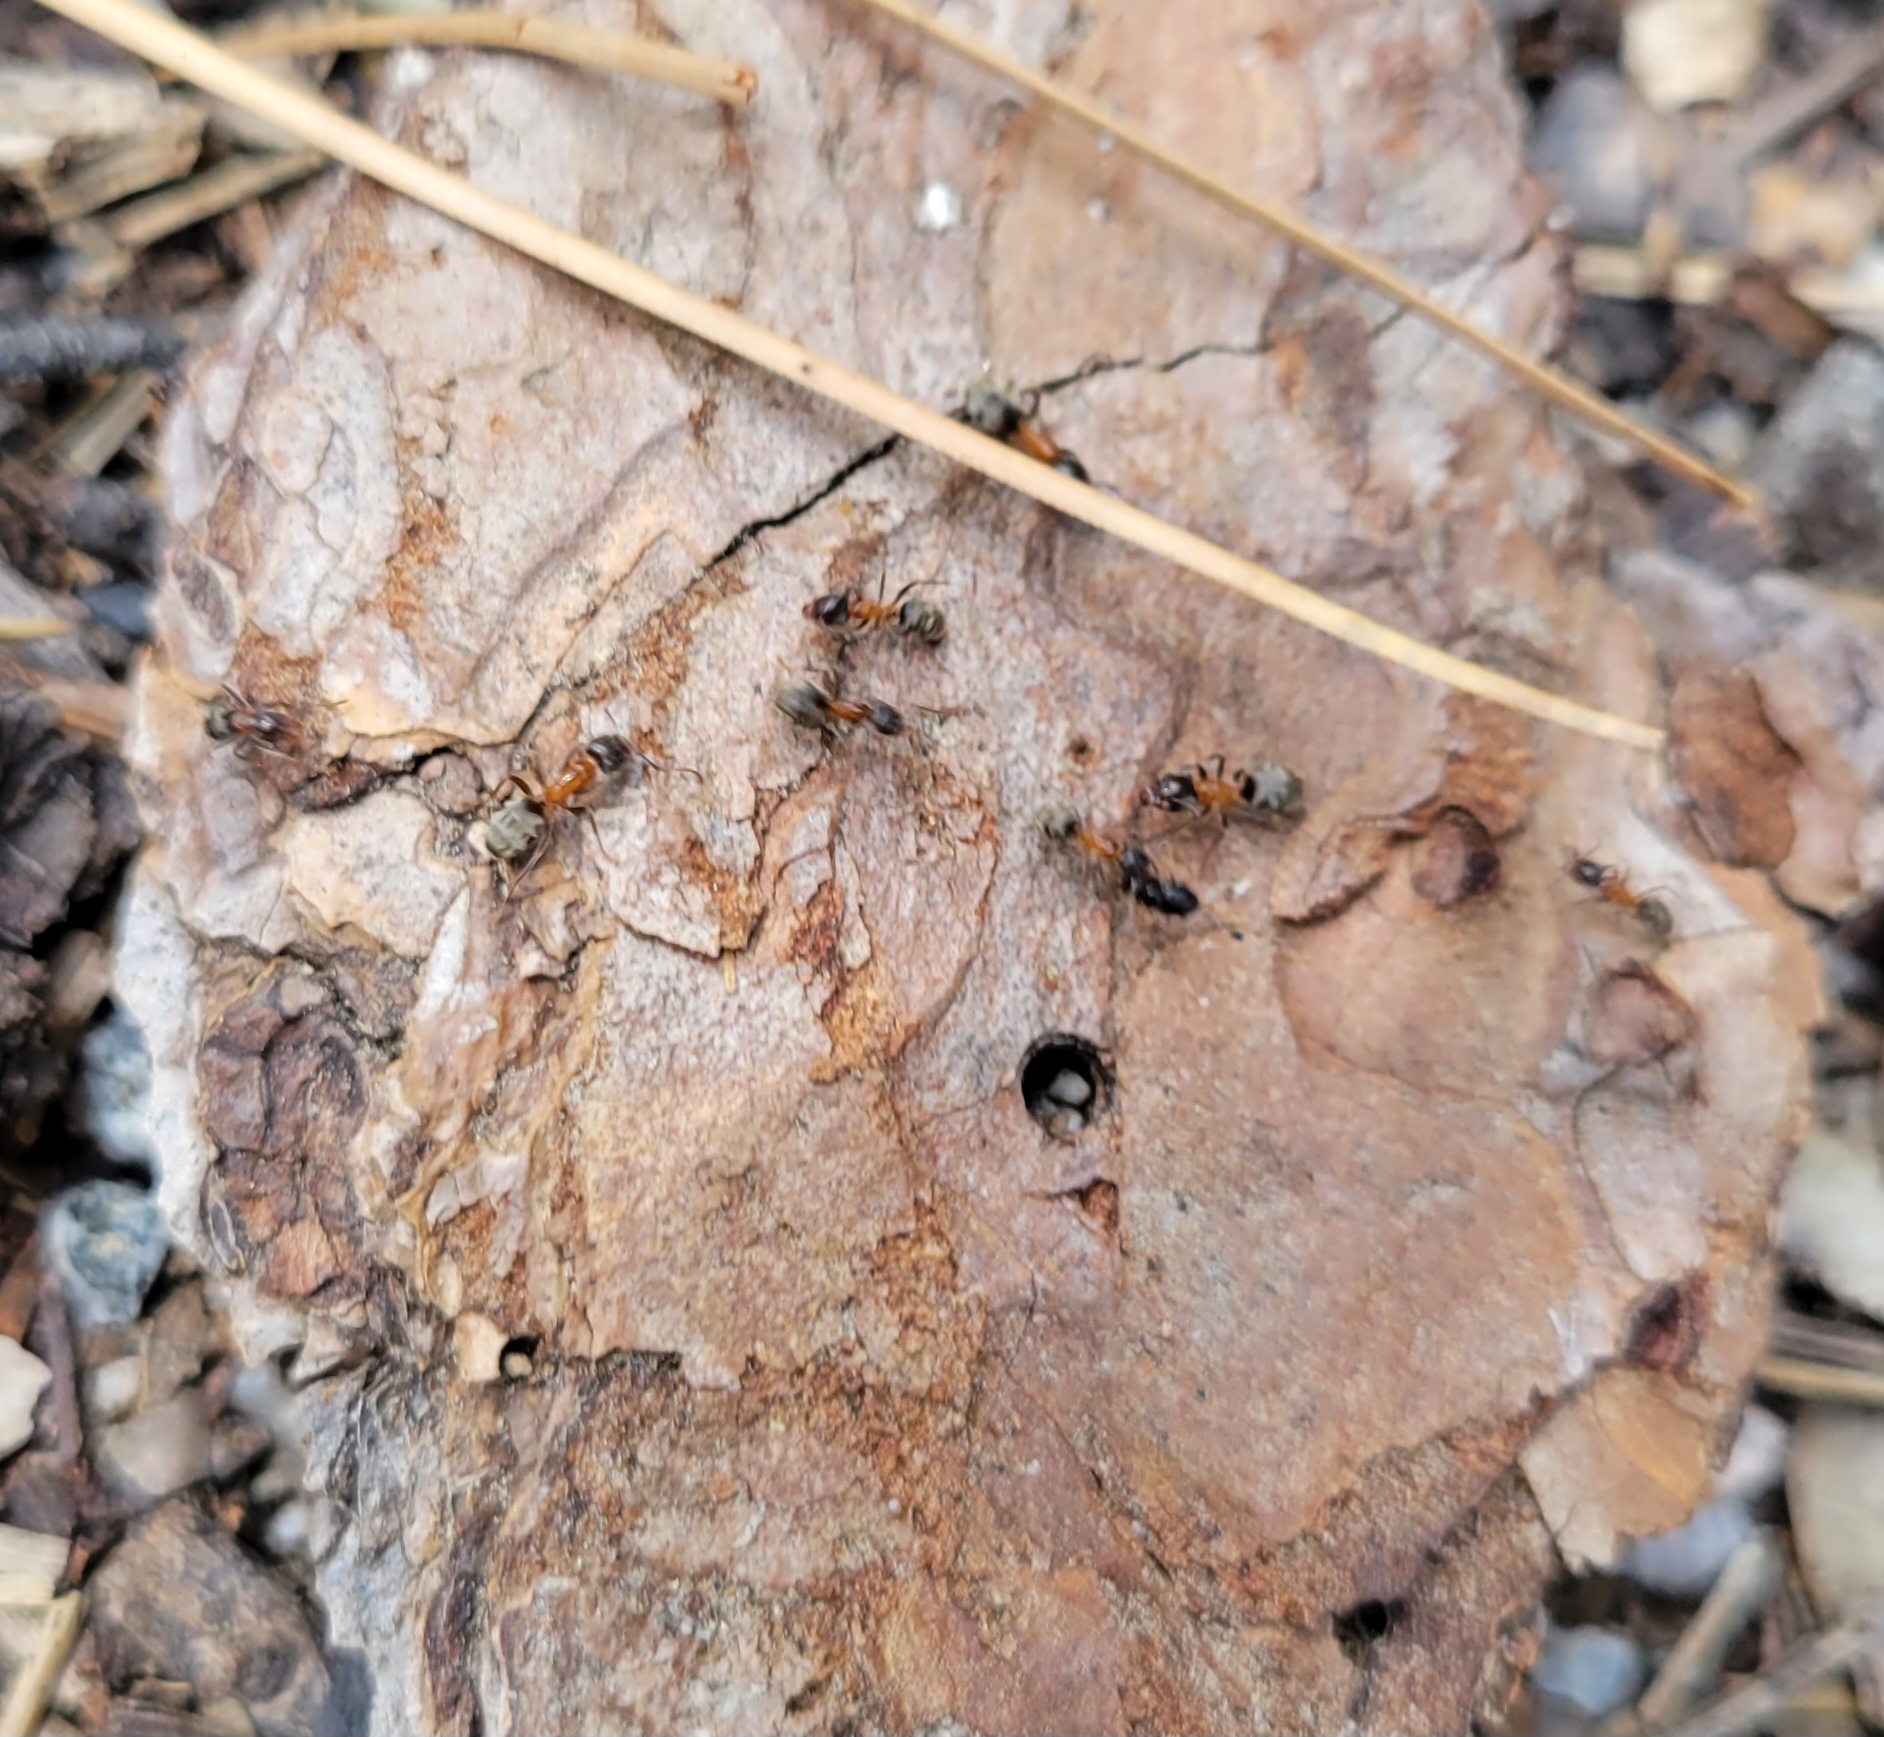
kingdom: Animalia
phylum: Arthropoda
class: Insecta
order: Hymenoptera
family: Formicidae
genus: Liometopum
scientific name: Liometopum occidentale
